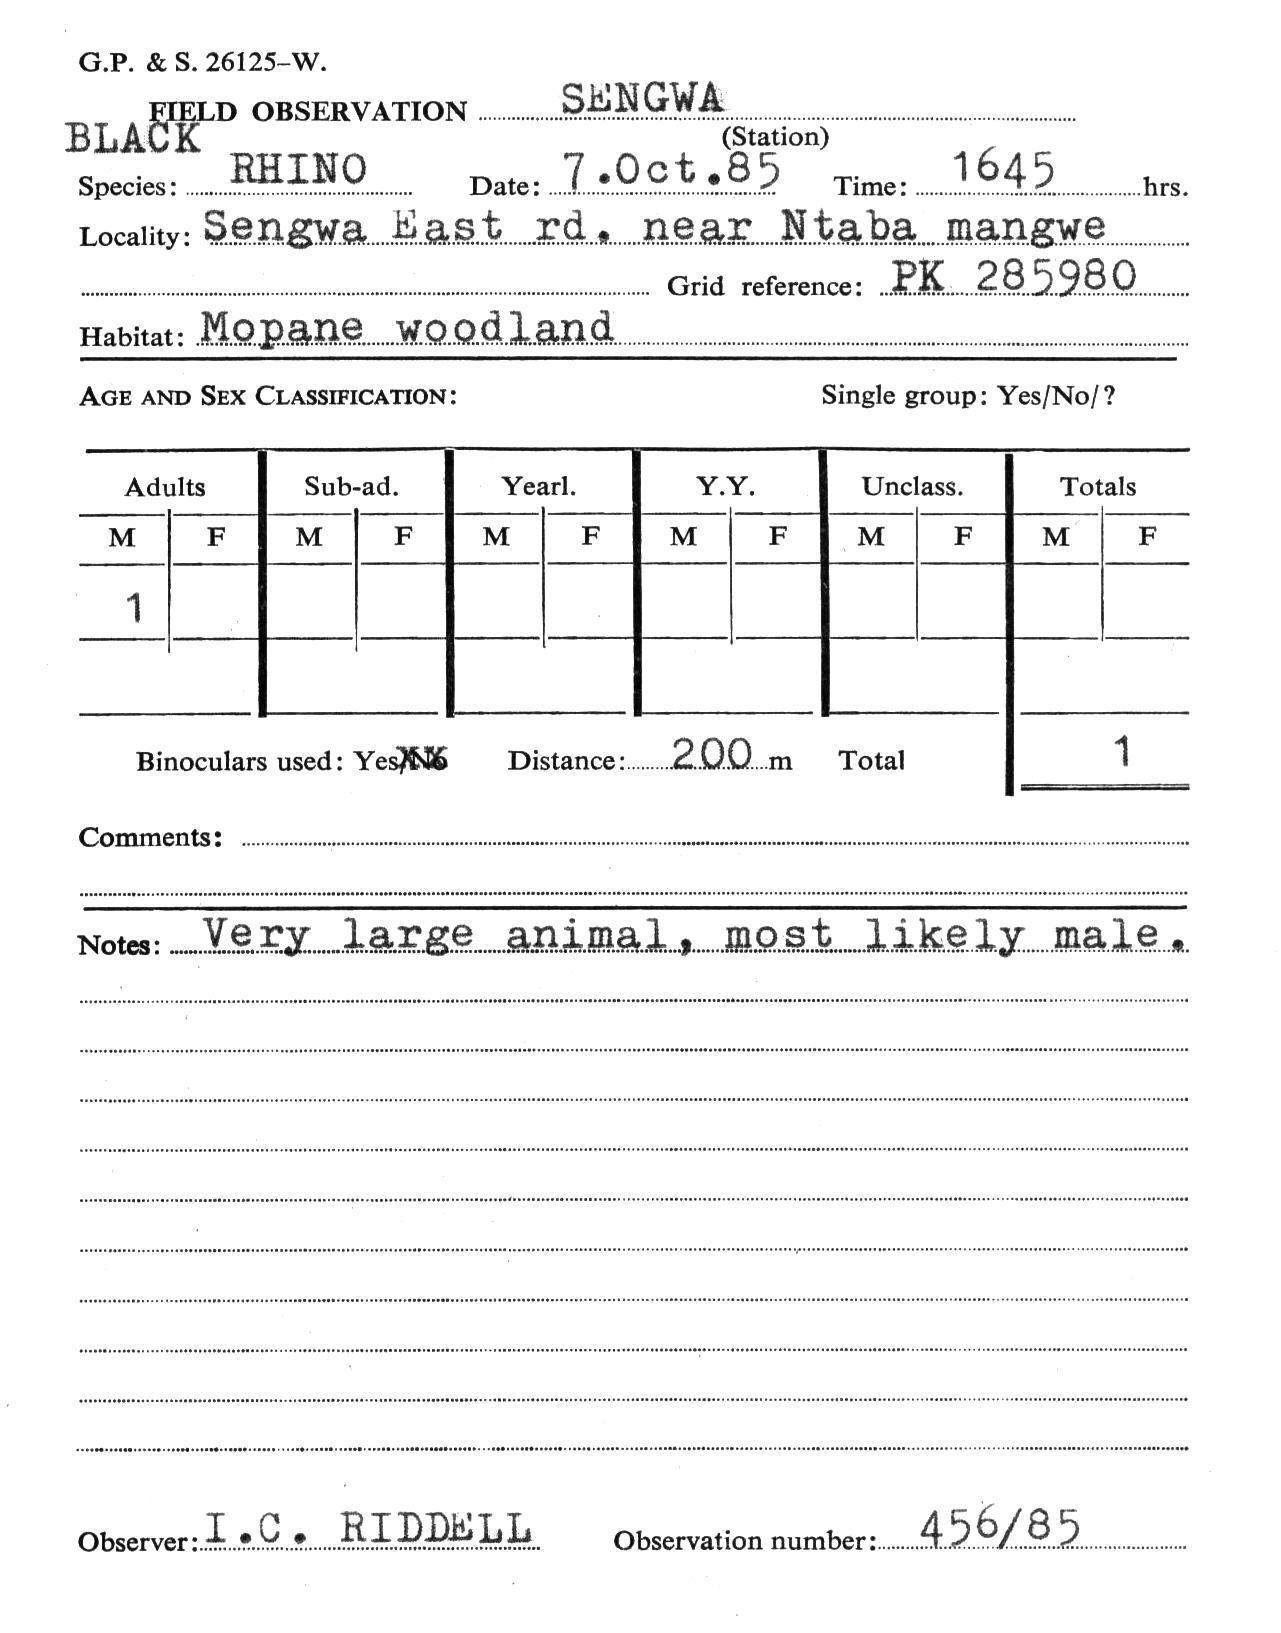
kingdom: Animalia
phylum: Chordata
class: Mammalia
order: Perissodactyla
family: Rhinocerotidae
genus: Diceros
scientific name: Diceros bicornis
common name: Black rhinoceros
